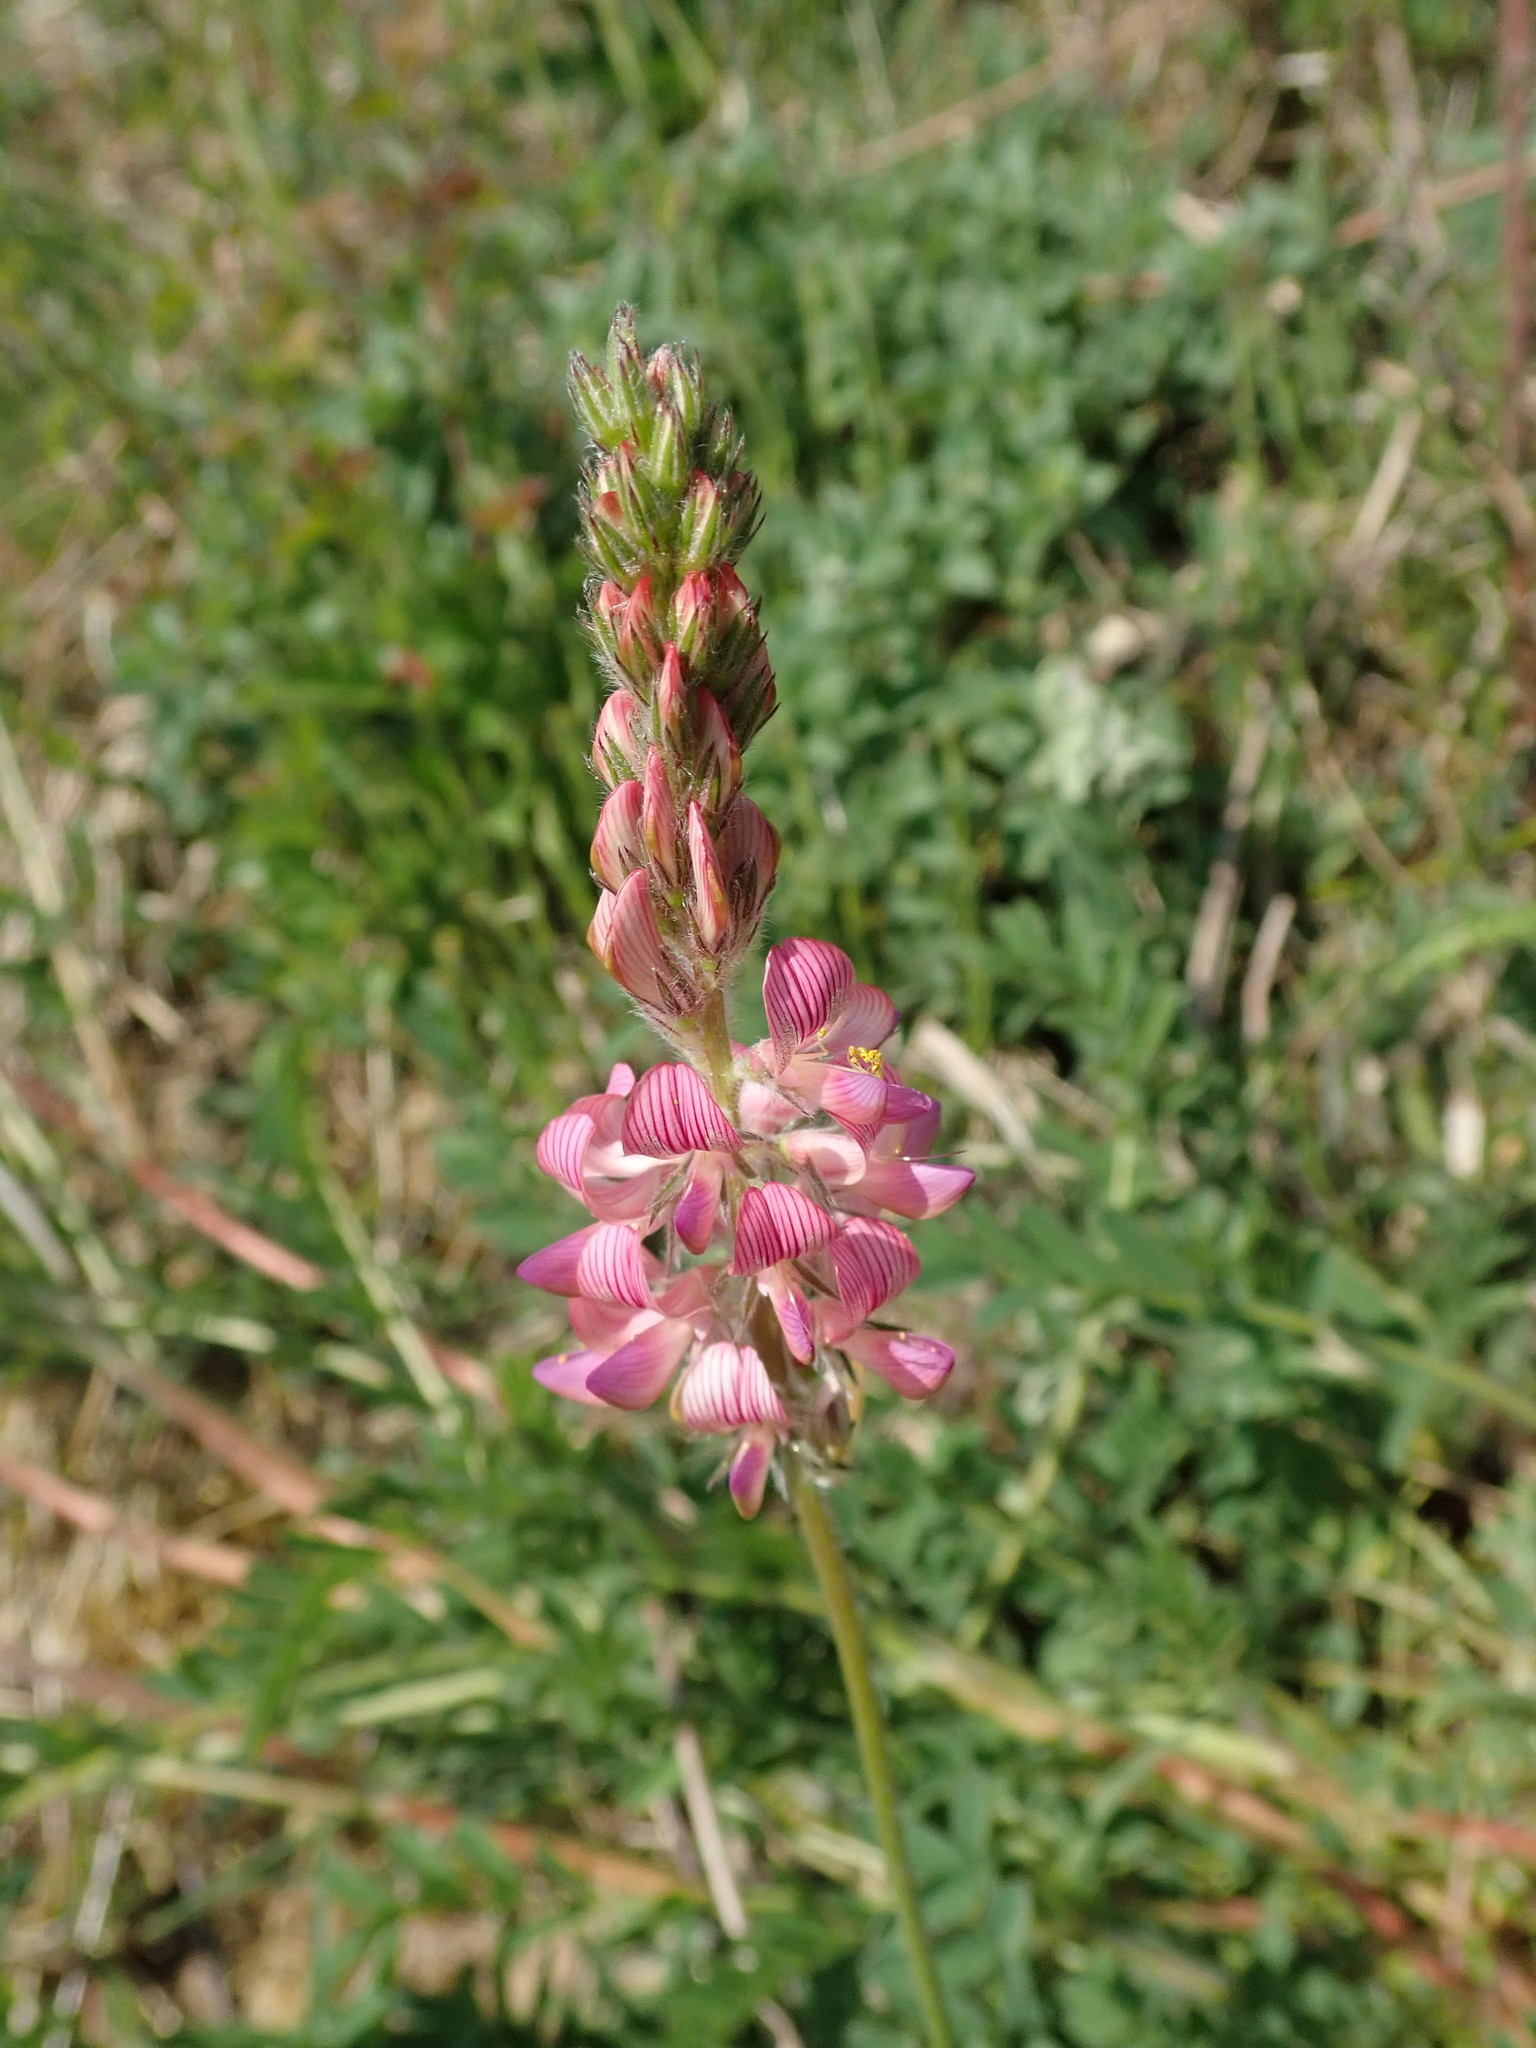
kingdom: Plantae
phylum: Tracheophyta
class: Magnoliopsida
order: Fabales
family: Fabaceae
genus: Onobrychis
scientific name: Onobrychis viciifolia
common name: Sainfoin
